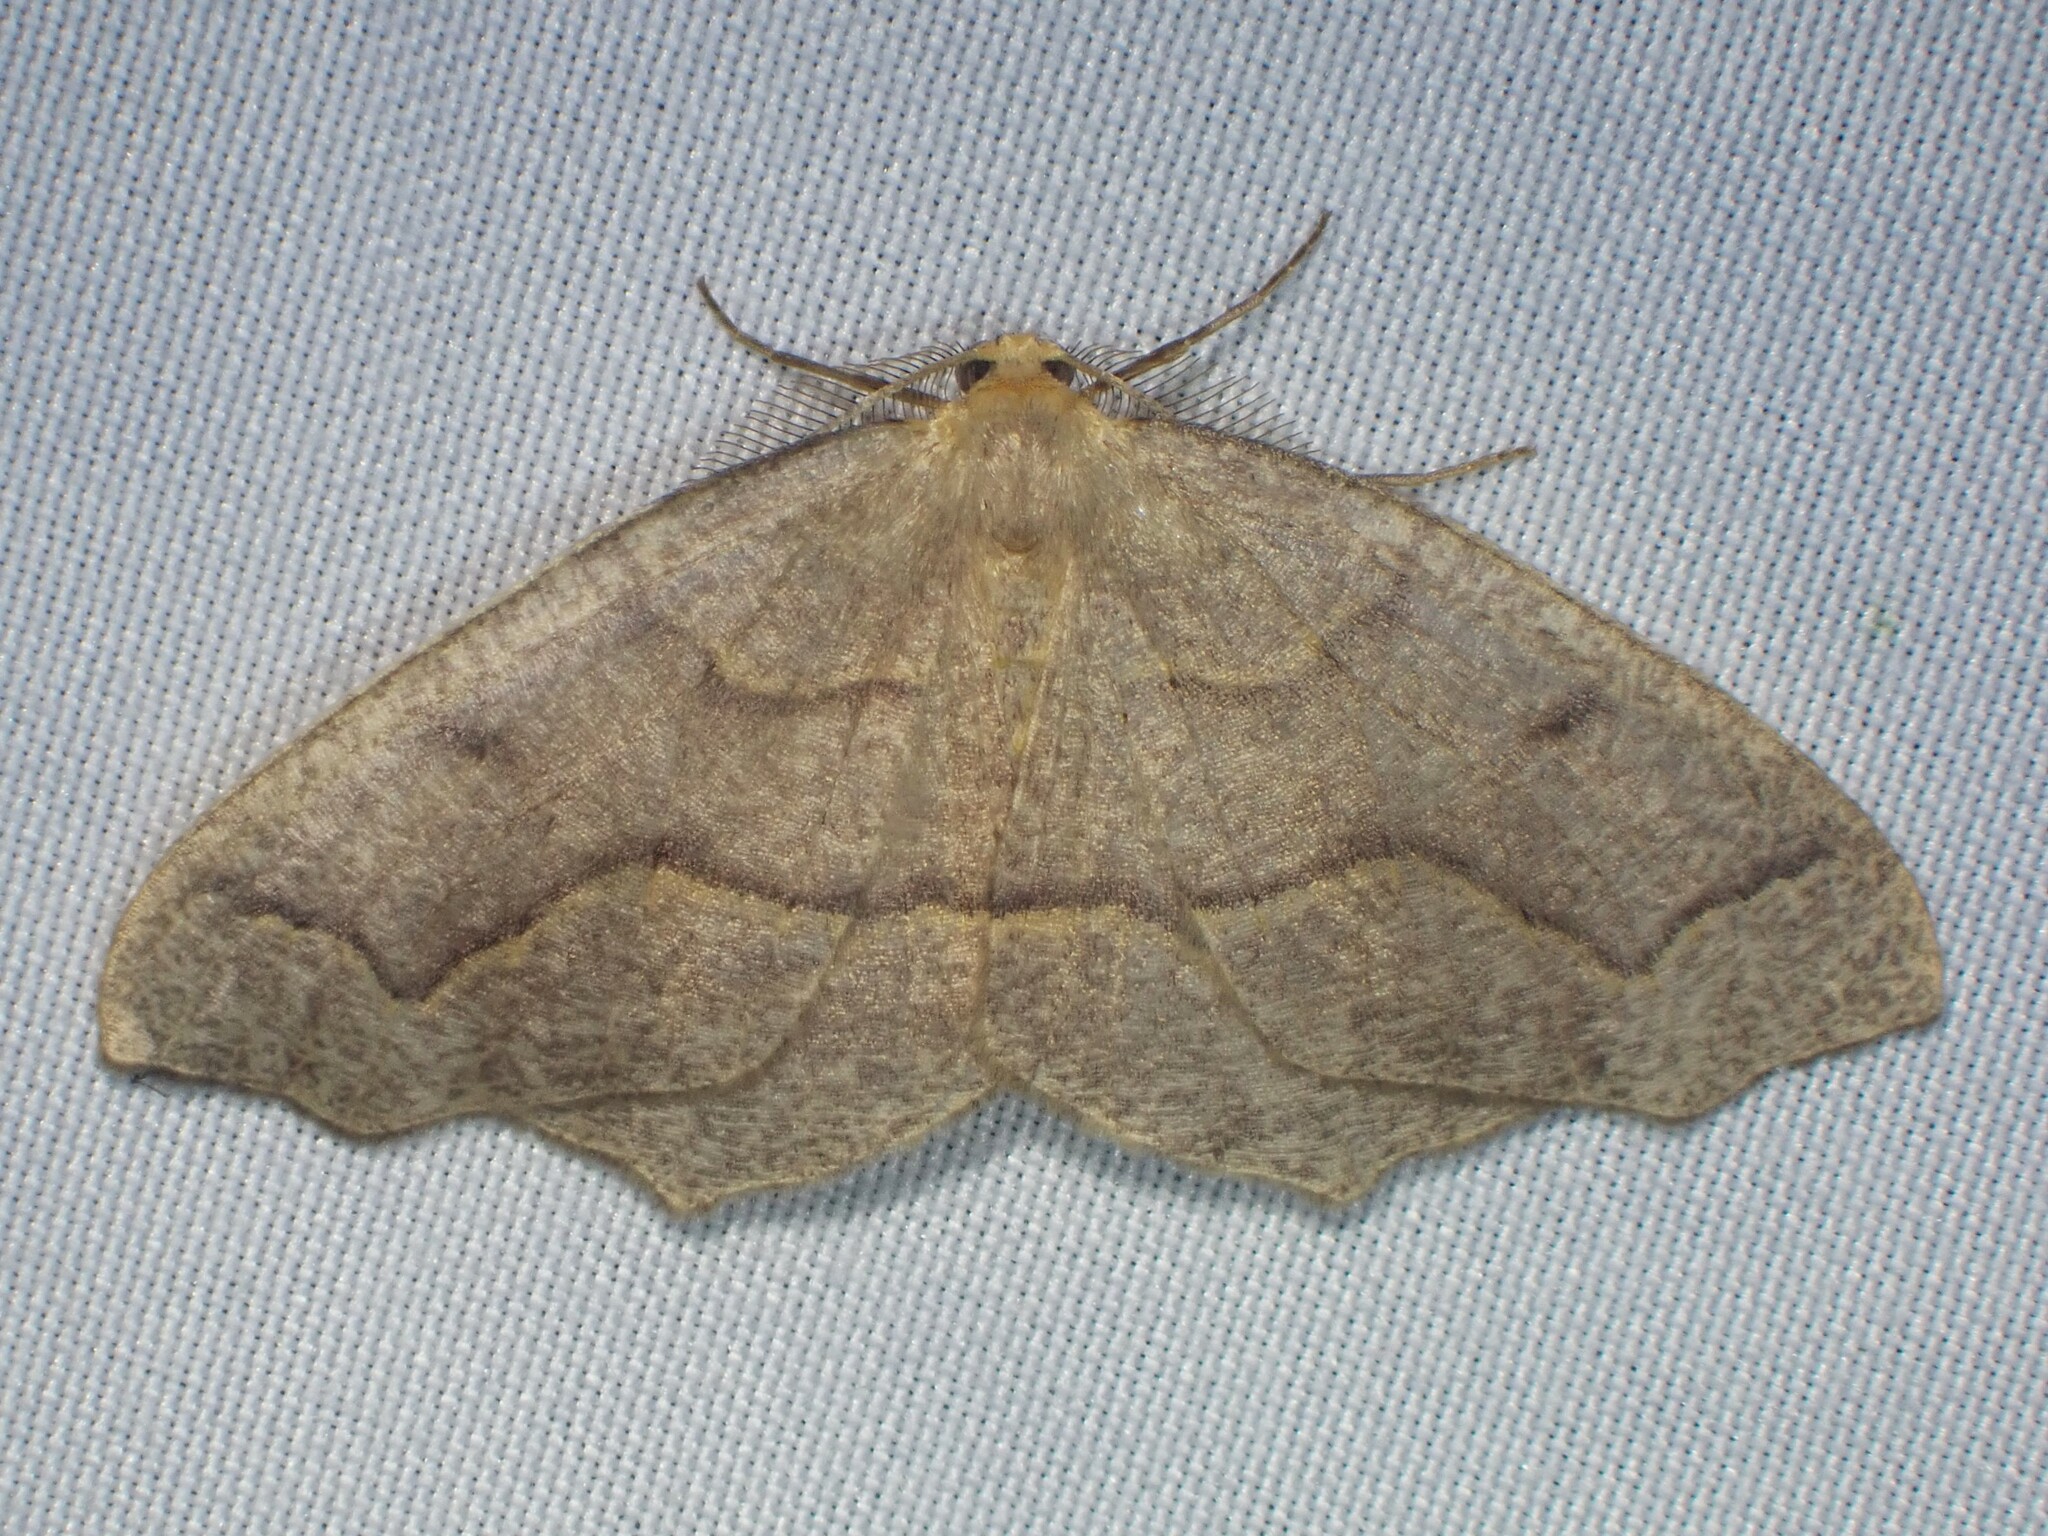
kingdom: Animalia
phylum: Arthropoda
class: Insecta
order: Lepidoptera
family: Geometridae
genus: Lambdina
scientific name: Lambdina fiscellaria
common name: Hemlock looper
